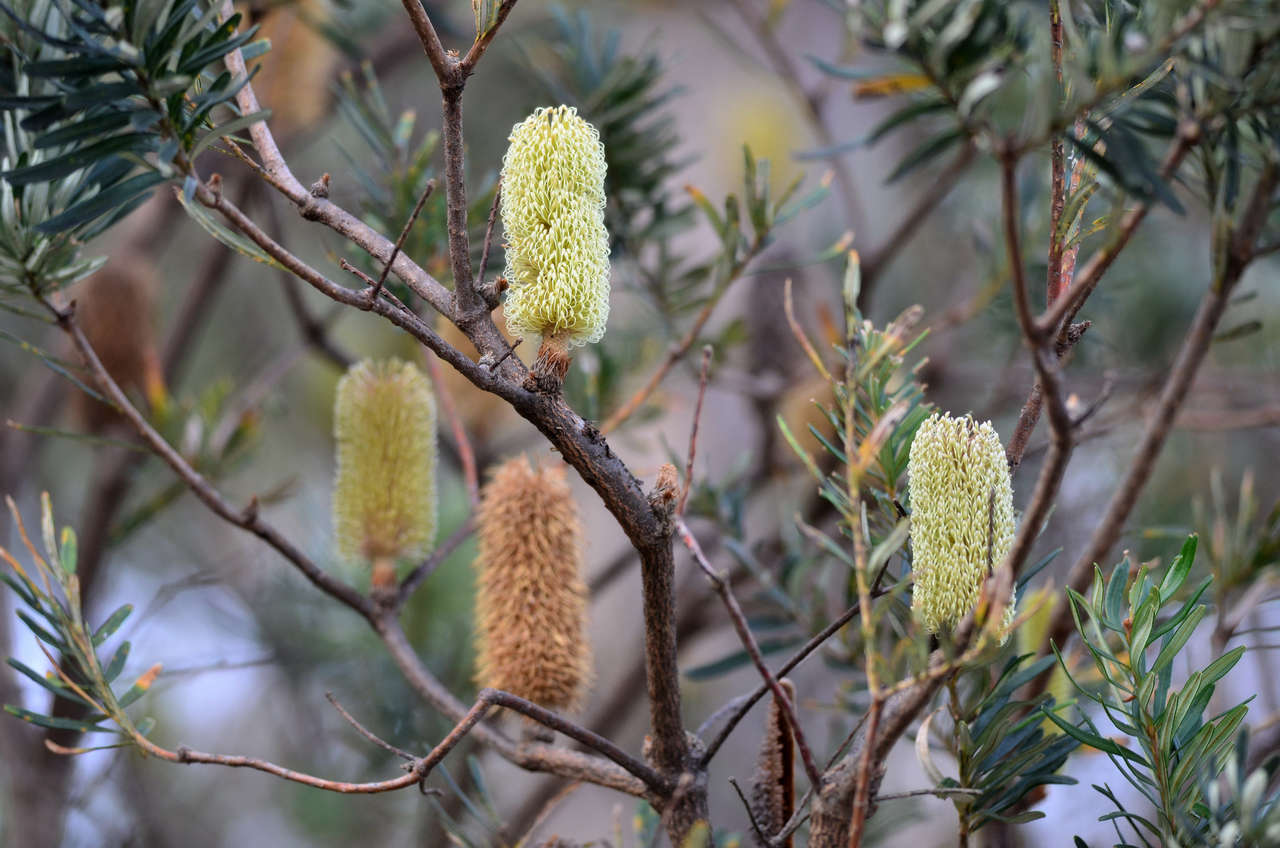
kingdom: Plantae
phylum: Tracheophyta
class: Magnoliopsida
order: Proteales
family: Proteaceae
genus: Banksia
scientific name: Banksia marginata
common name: Silver banksia
